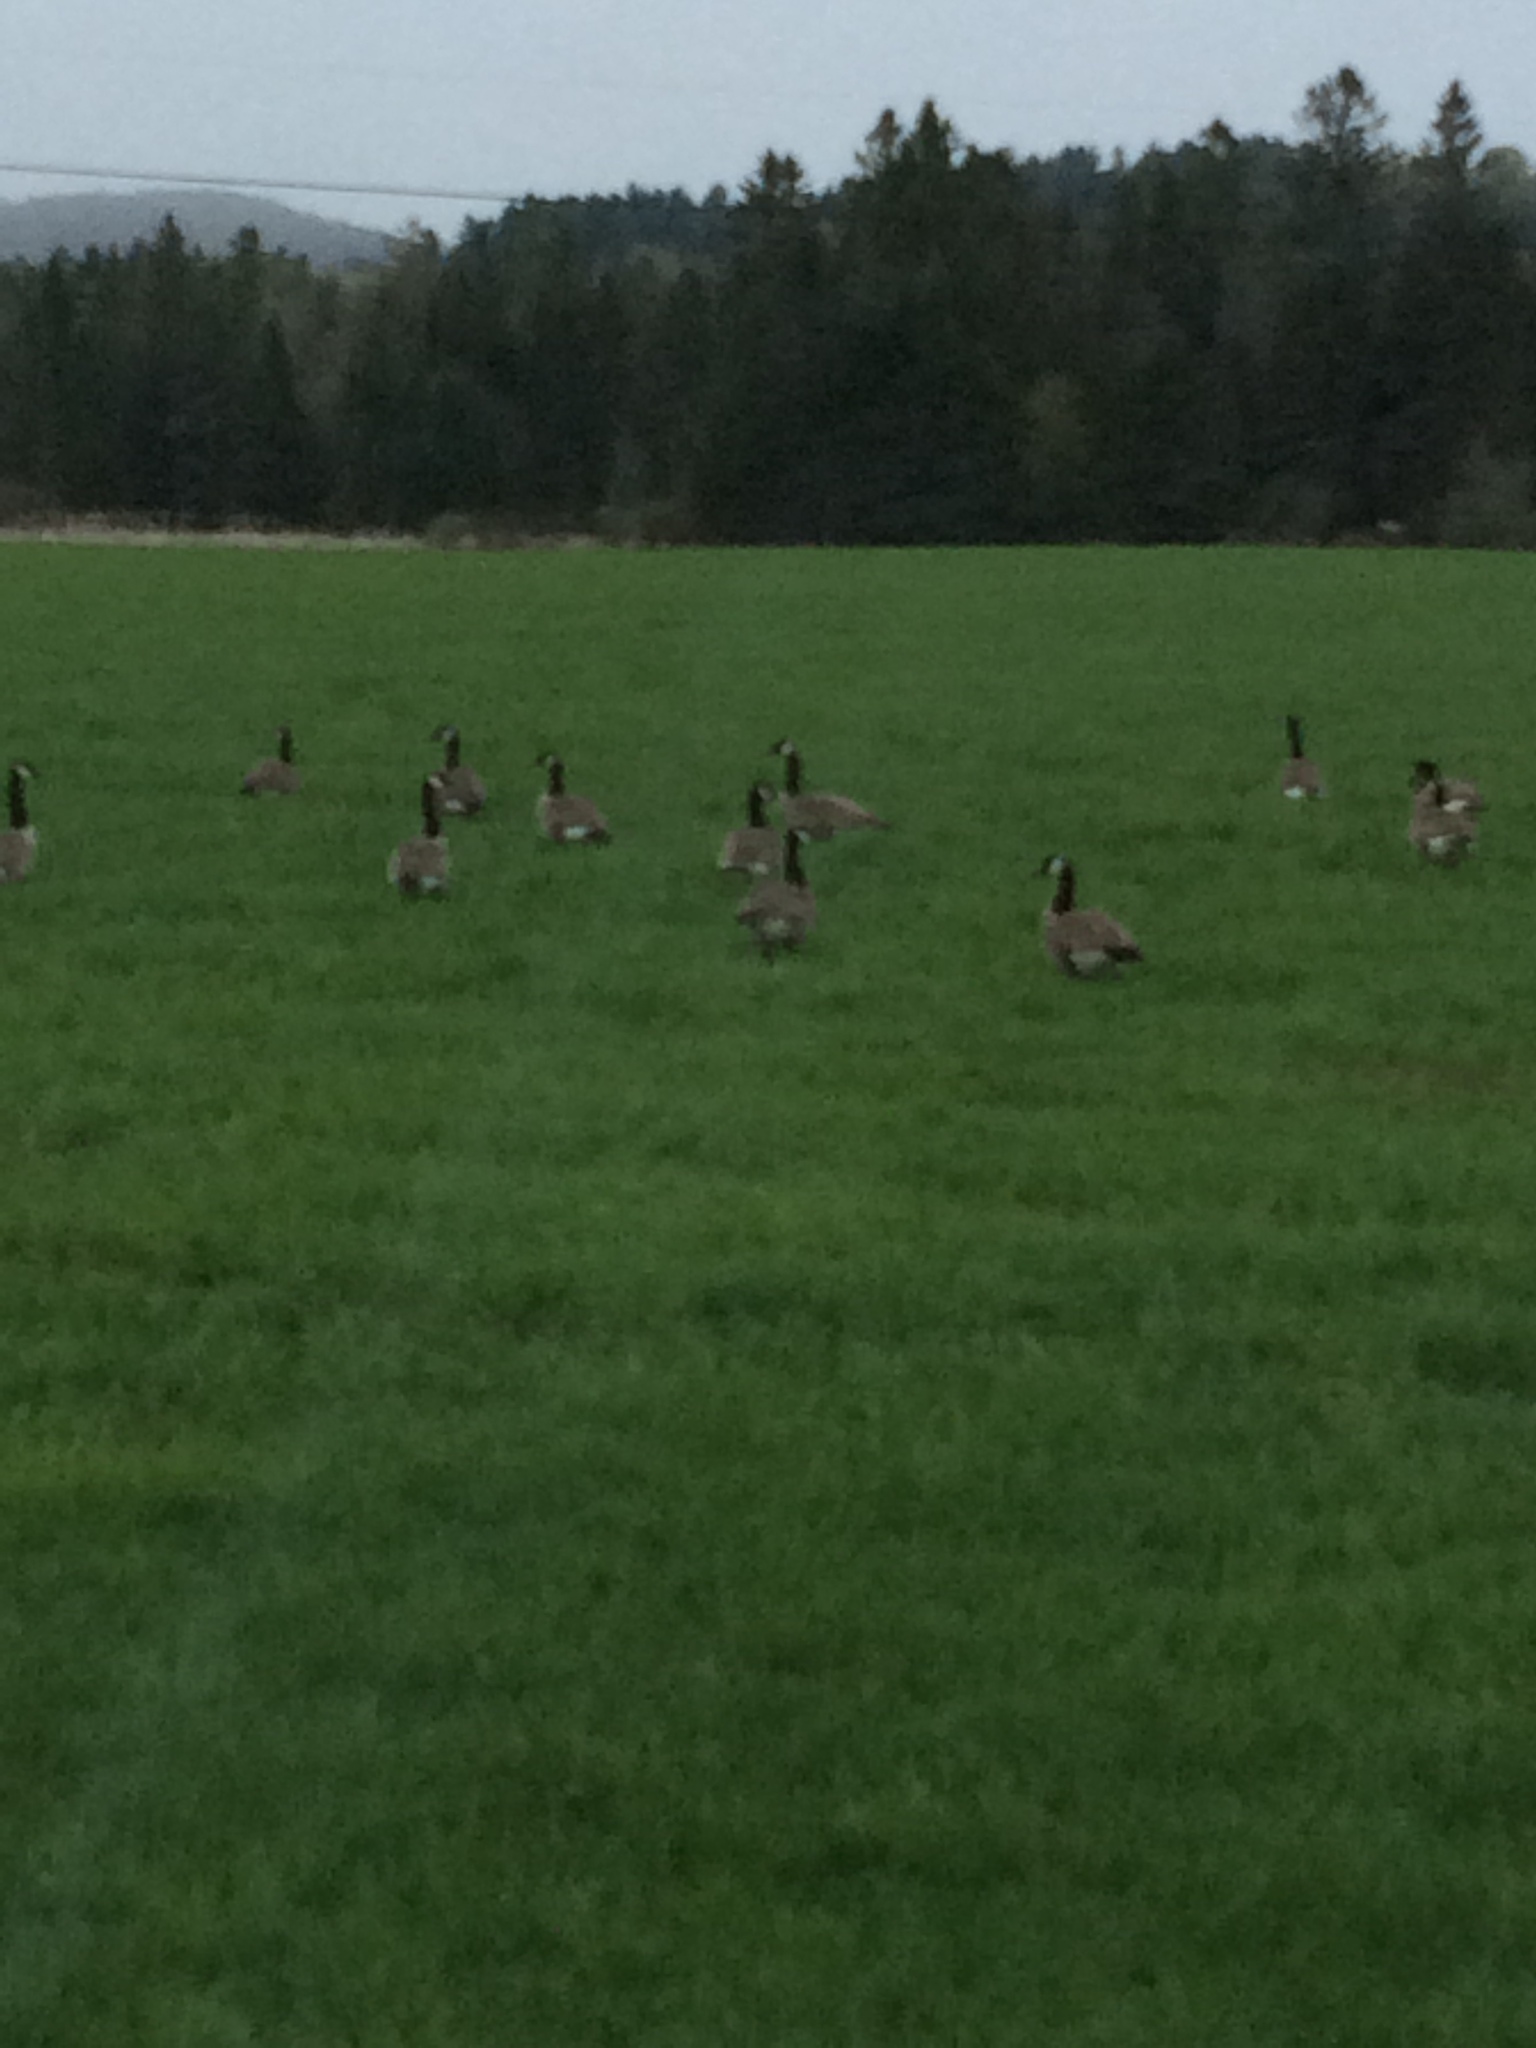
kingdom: Animalia
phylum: Chordata
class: Aves
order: Anseriformes
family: Anatidae
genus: Branta
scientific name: Branta canadensis
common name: Canada goose
